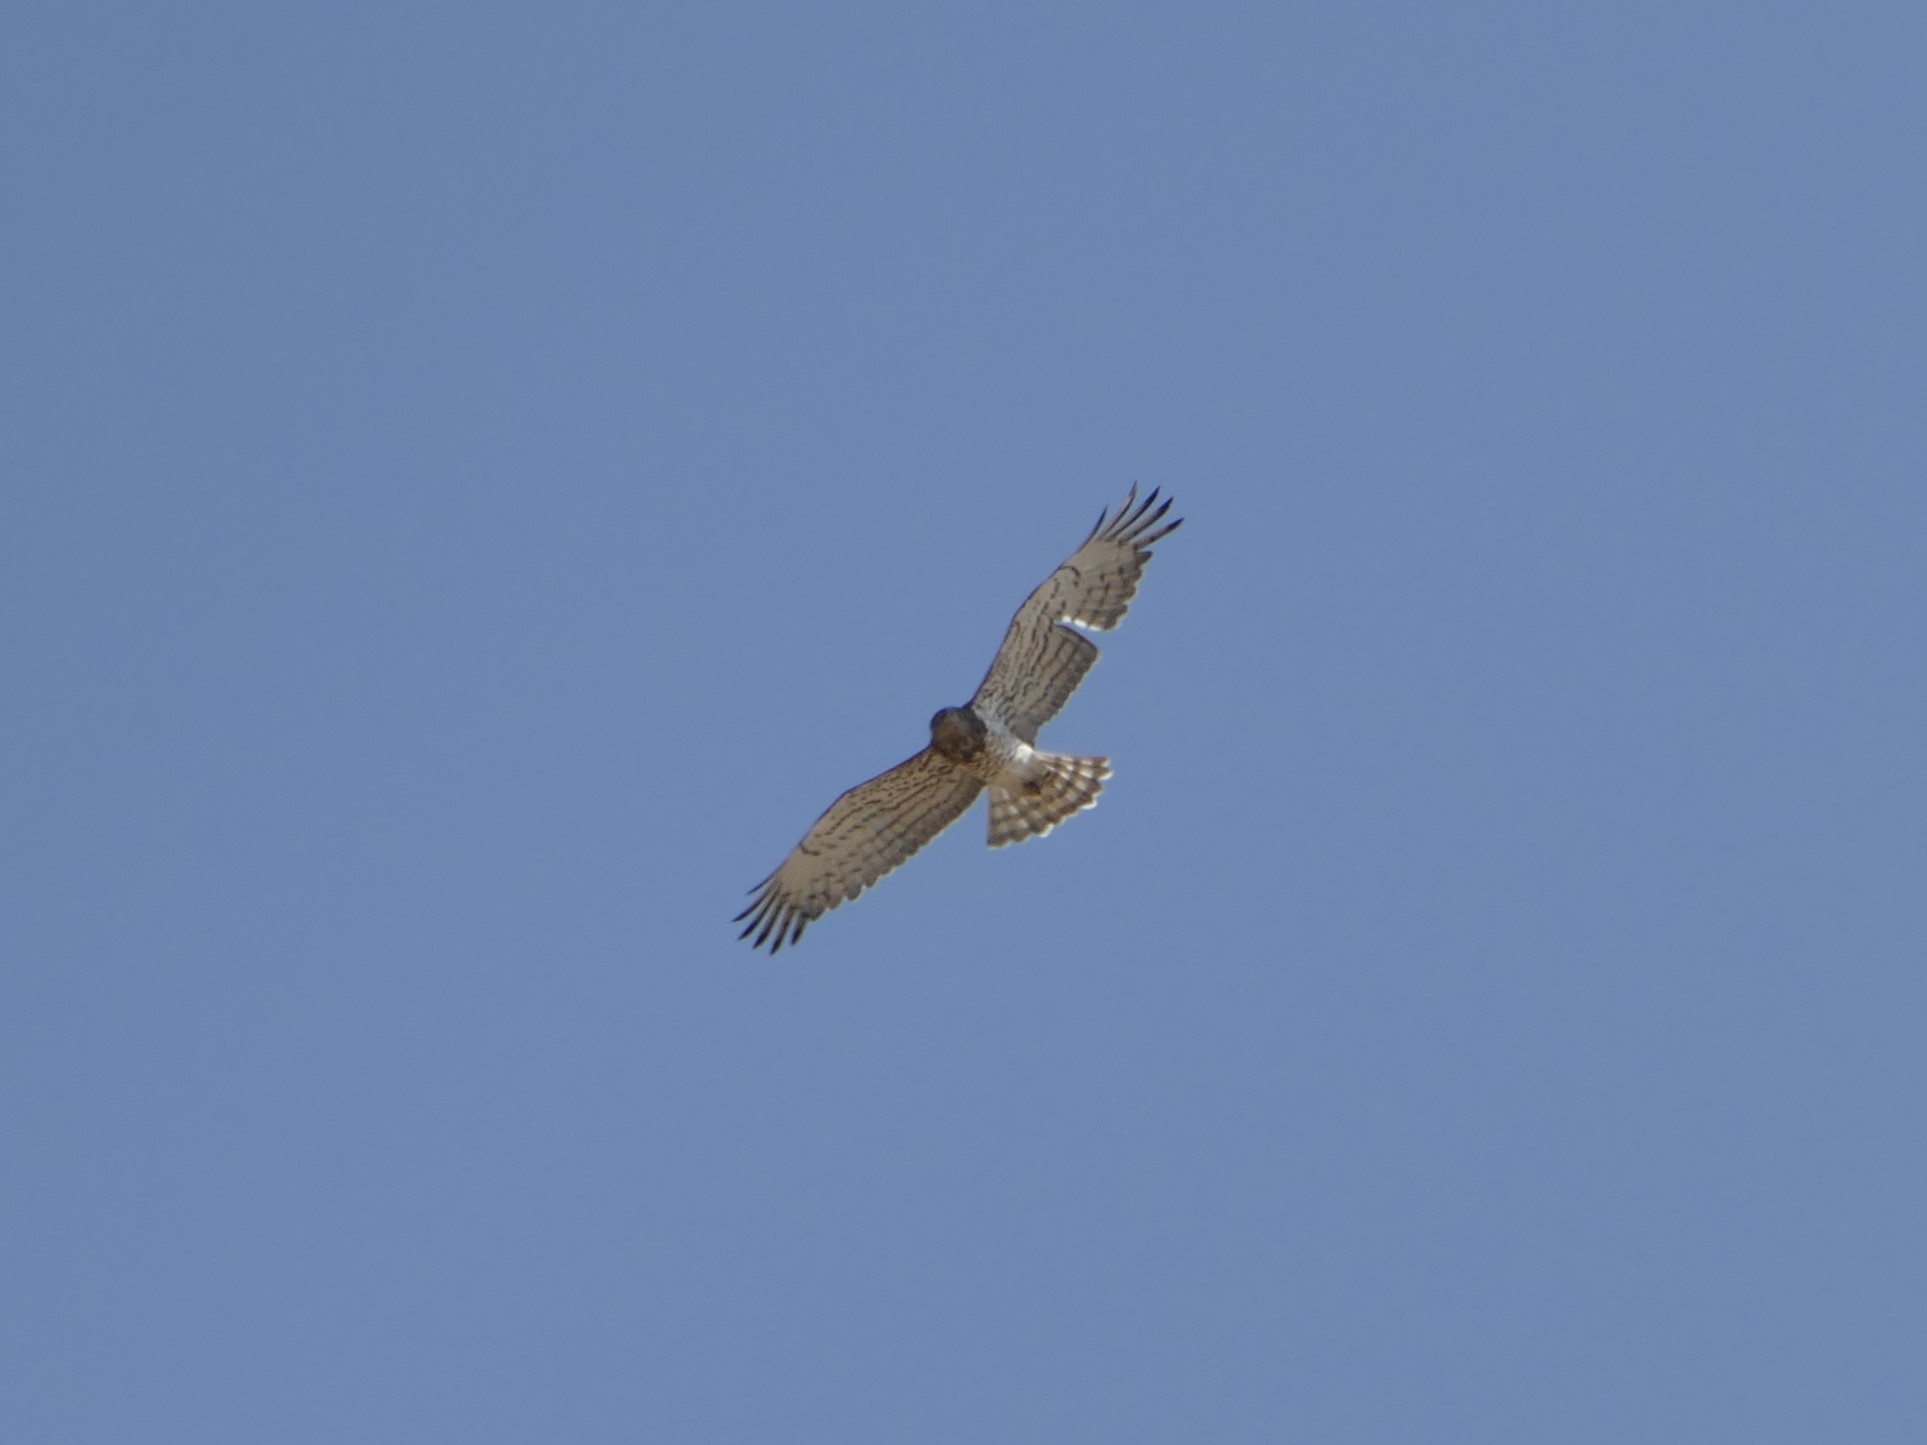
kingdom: Animalia
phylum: Chordata
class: Aves
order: Accipitriformes
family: Accipitridae
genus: Circaetus
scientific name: Circaetus gallicus
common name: Short-toed snake eagle
